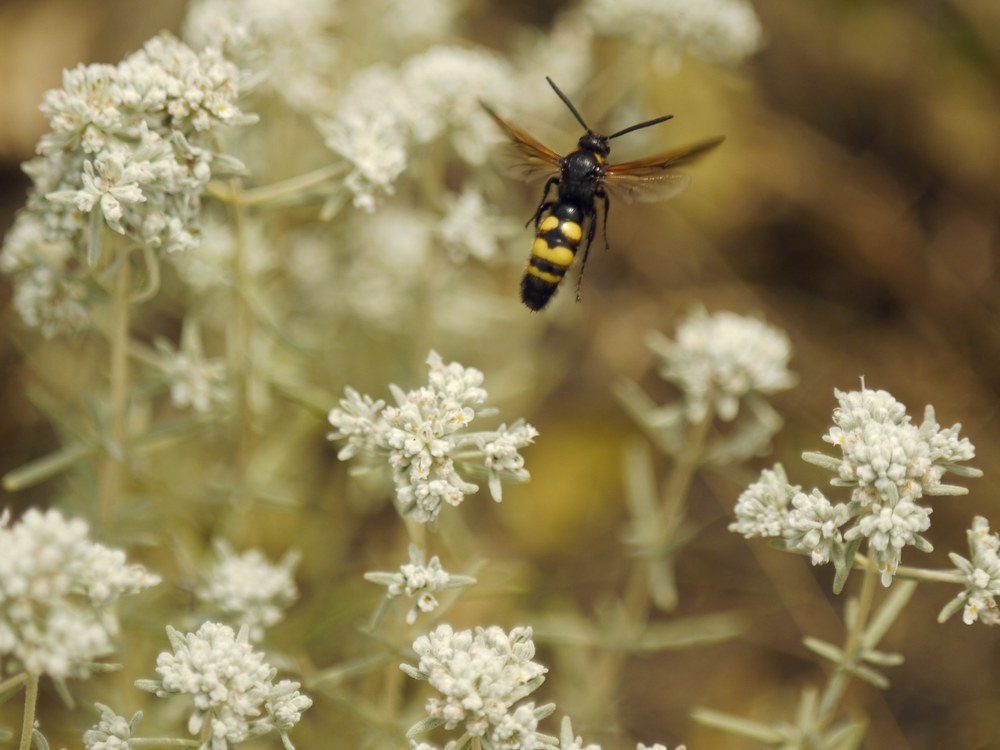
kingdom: Animalia
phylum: Arthropoda
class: Insecta
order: Hymenoptera
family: Scoliidae
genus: Scolia
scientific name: Scolia fuciformis
